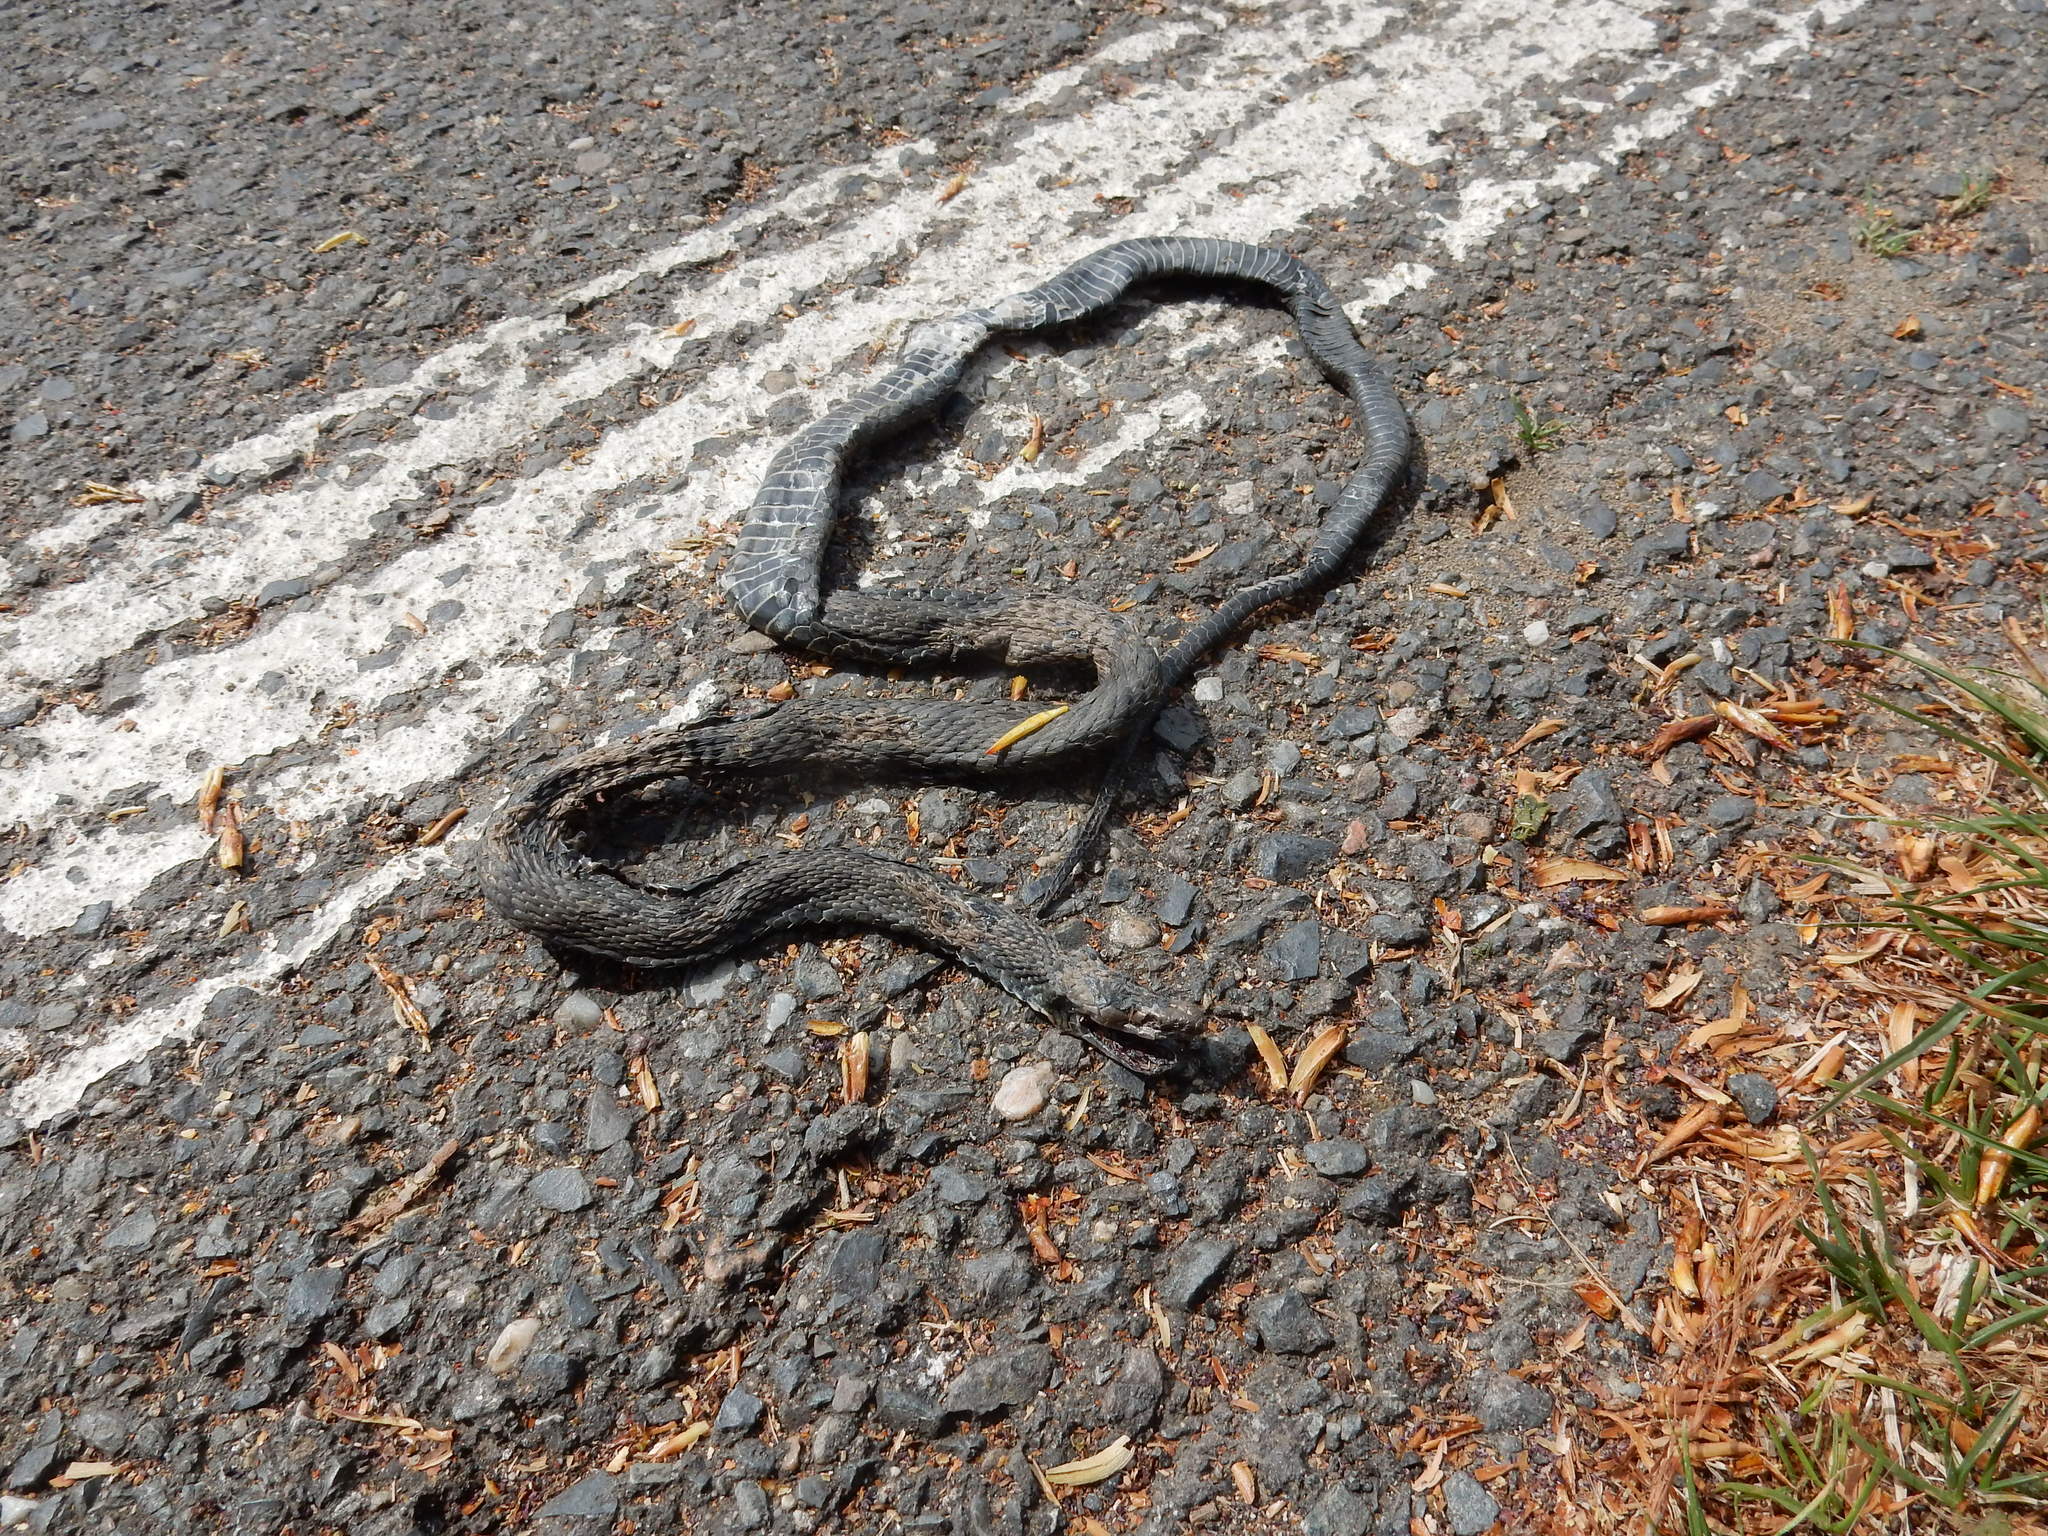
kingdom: Animalia
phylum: Chordata
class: Squamata
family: Colubridae
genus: Natrix
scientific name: Natrix tessellata
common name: Dice snake
